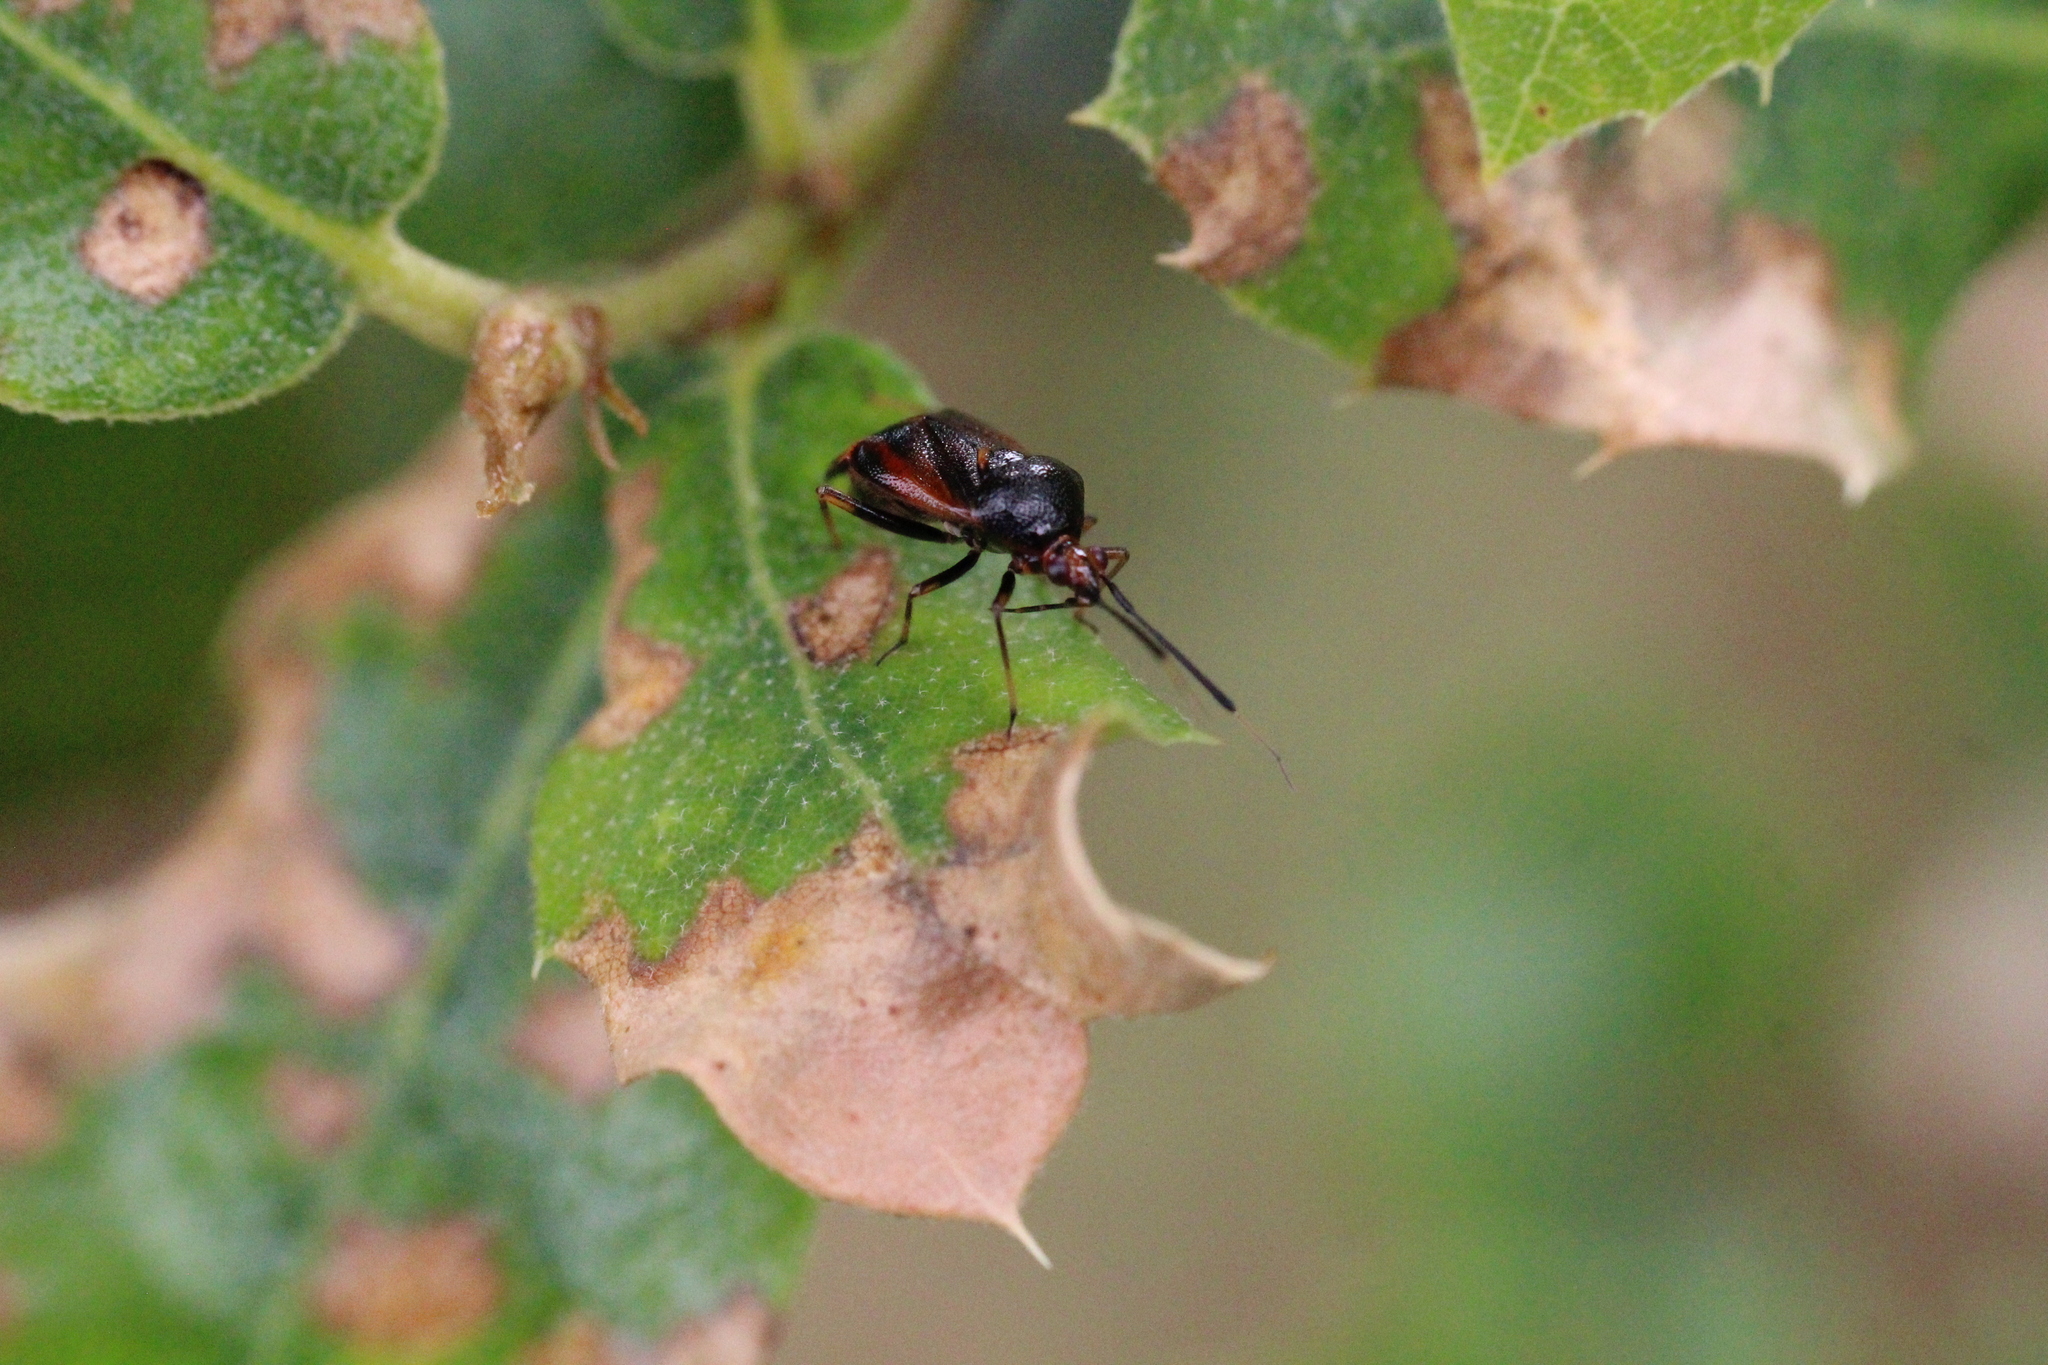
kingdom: Animalia
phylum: Arthropoda
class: Insecta
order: Hemiptera
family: Miridae
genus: Deraeocoris
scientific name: Deraeocoris ruber
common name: Plant bug
